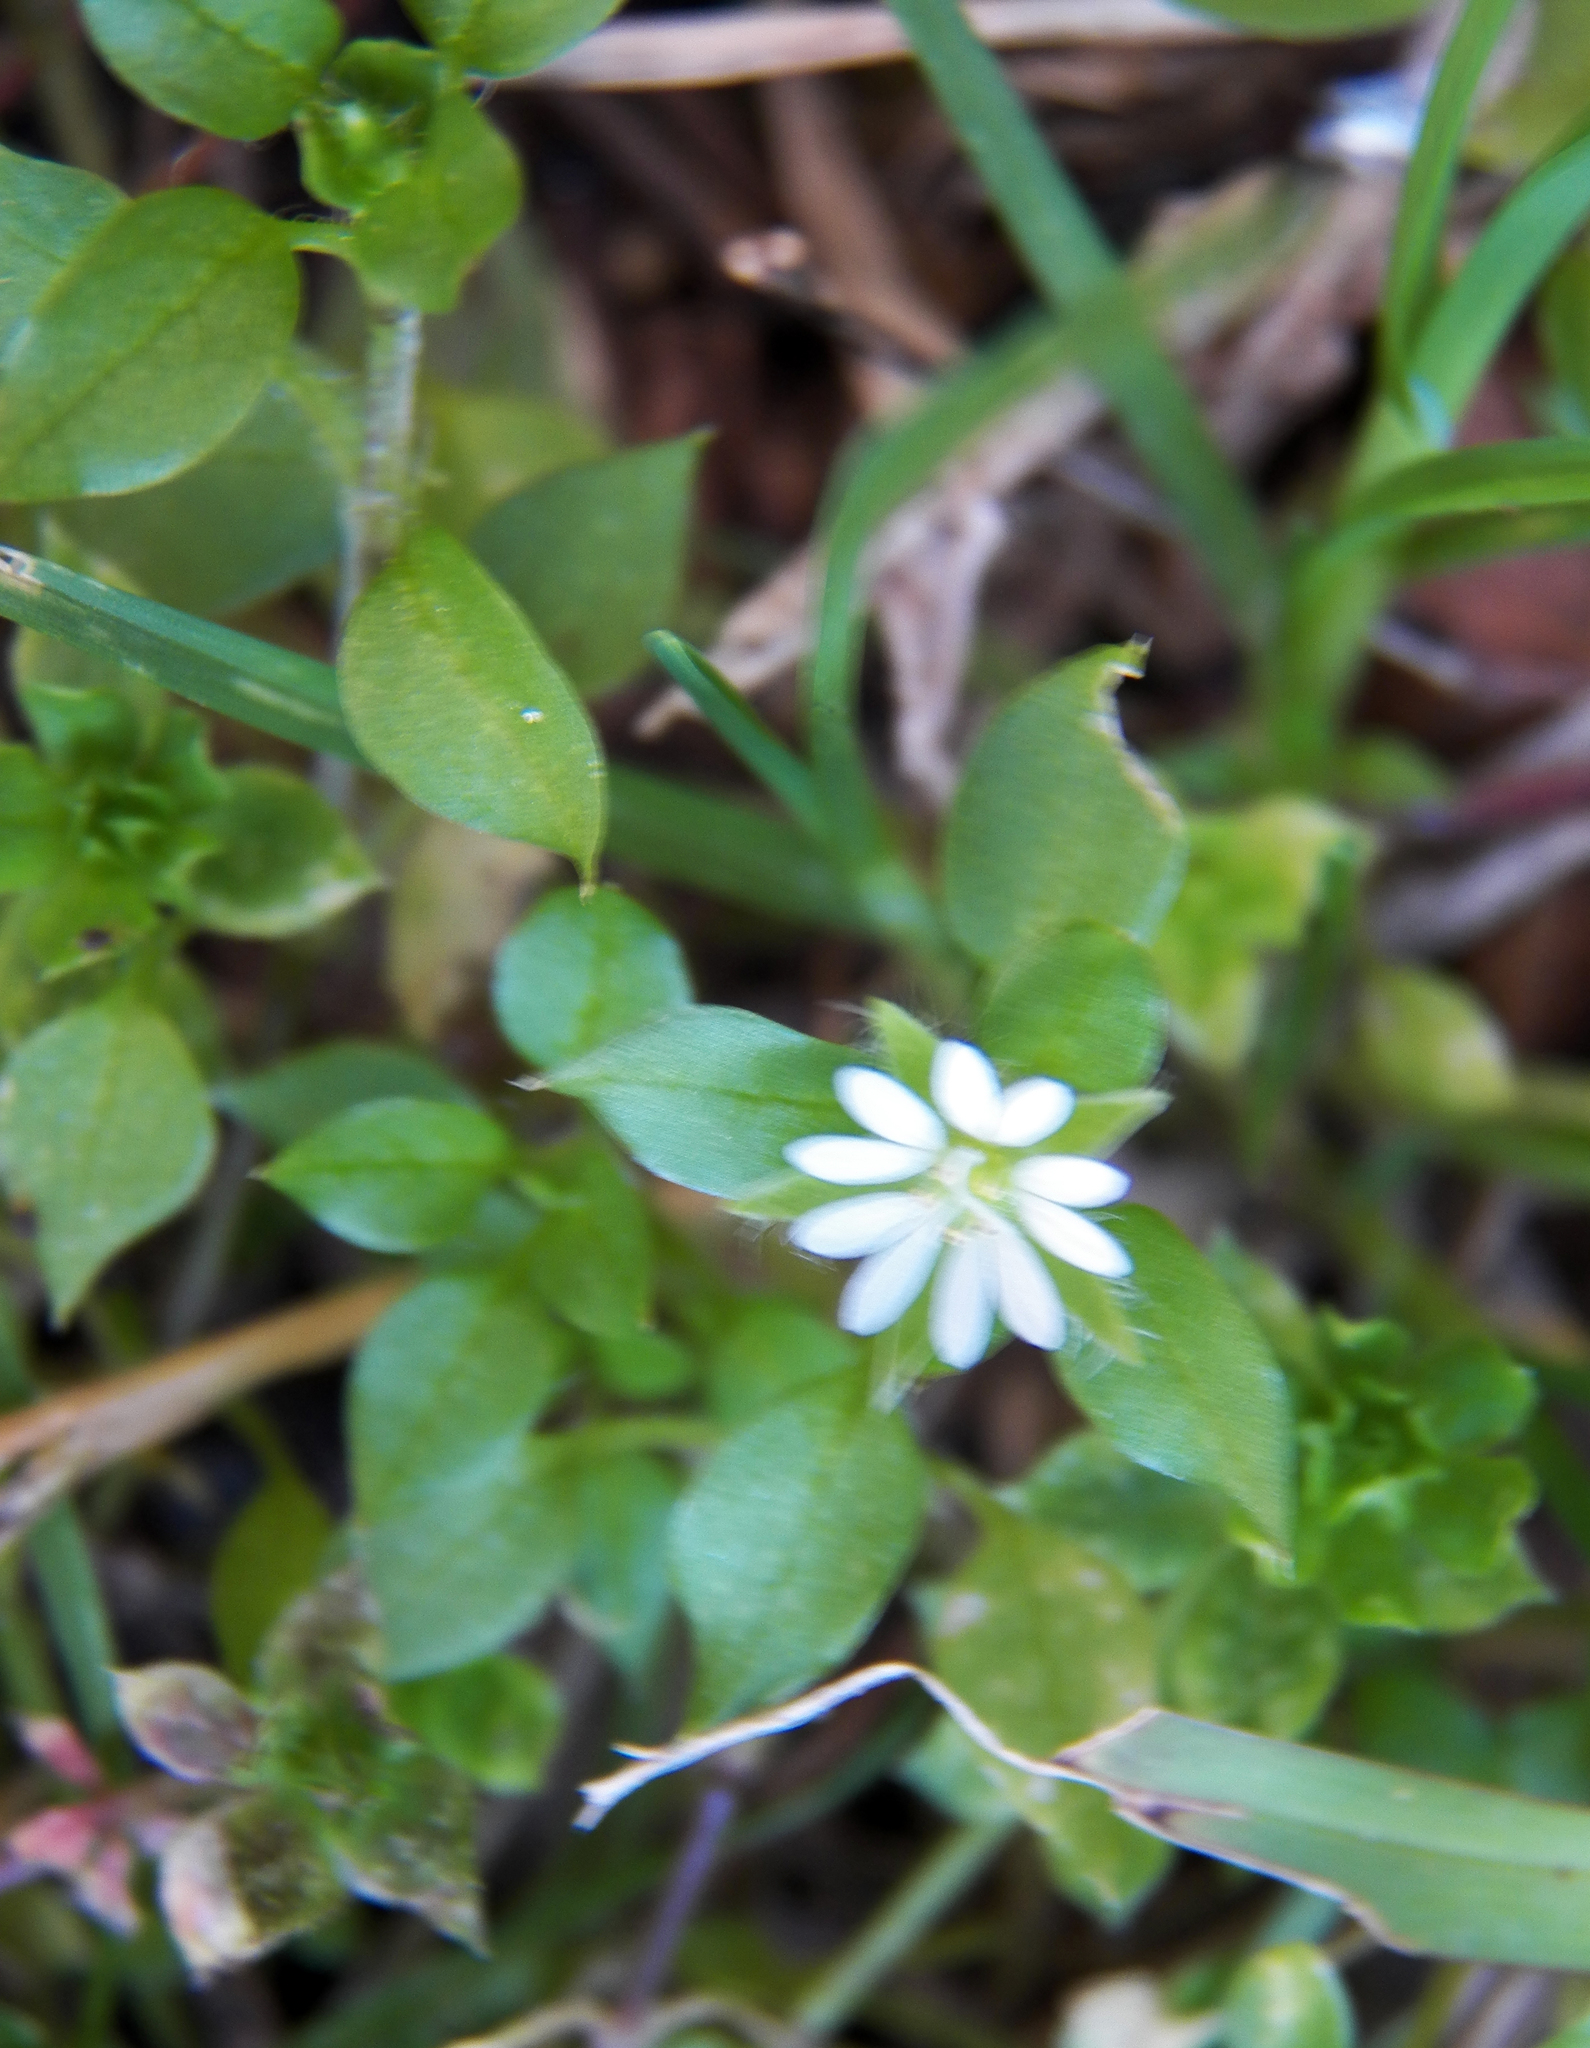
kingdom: Plantae
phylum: Tracheophyta
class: Magnoliopsida
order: Caryophyllales
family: Caryophyllaceae
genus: Stellaria
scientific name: Stellaria media
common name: Common chickweed
